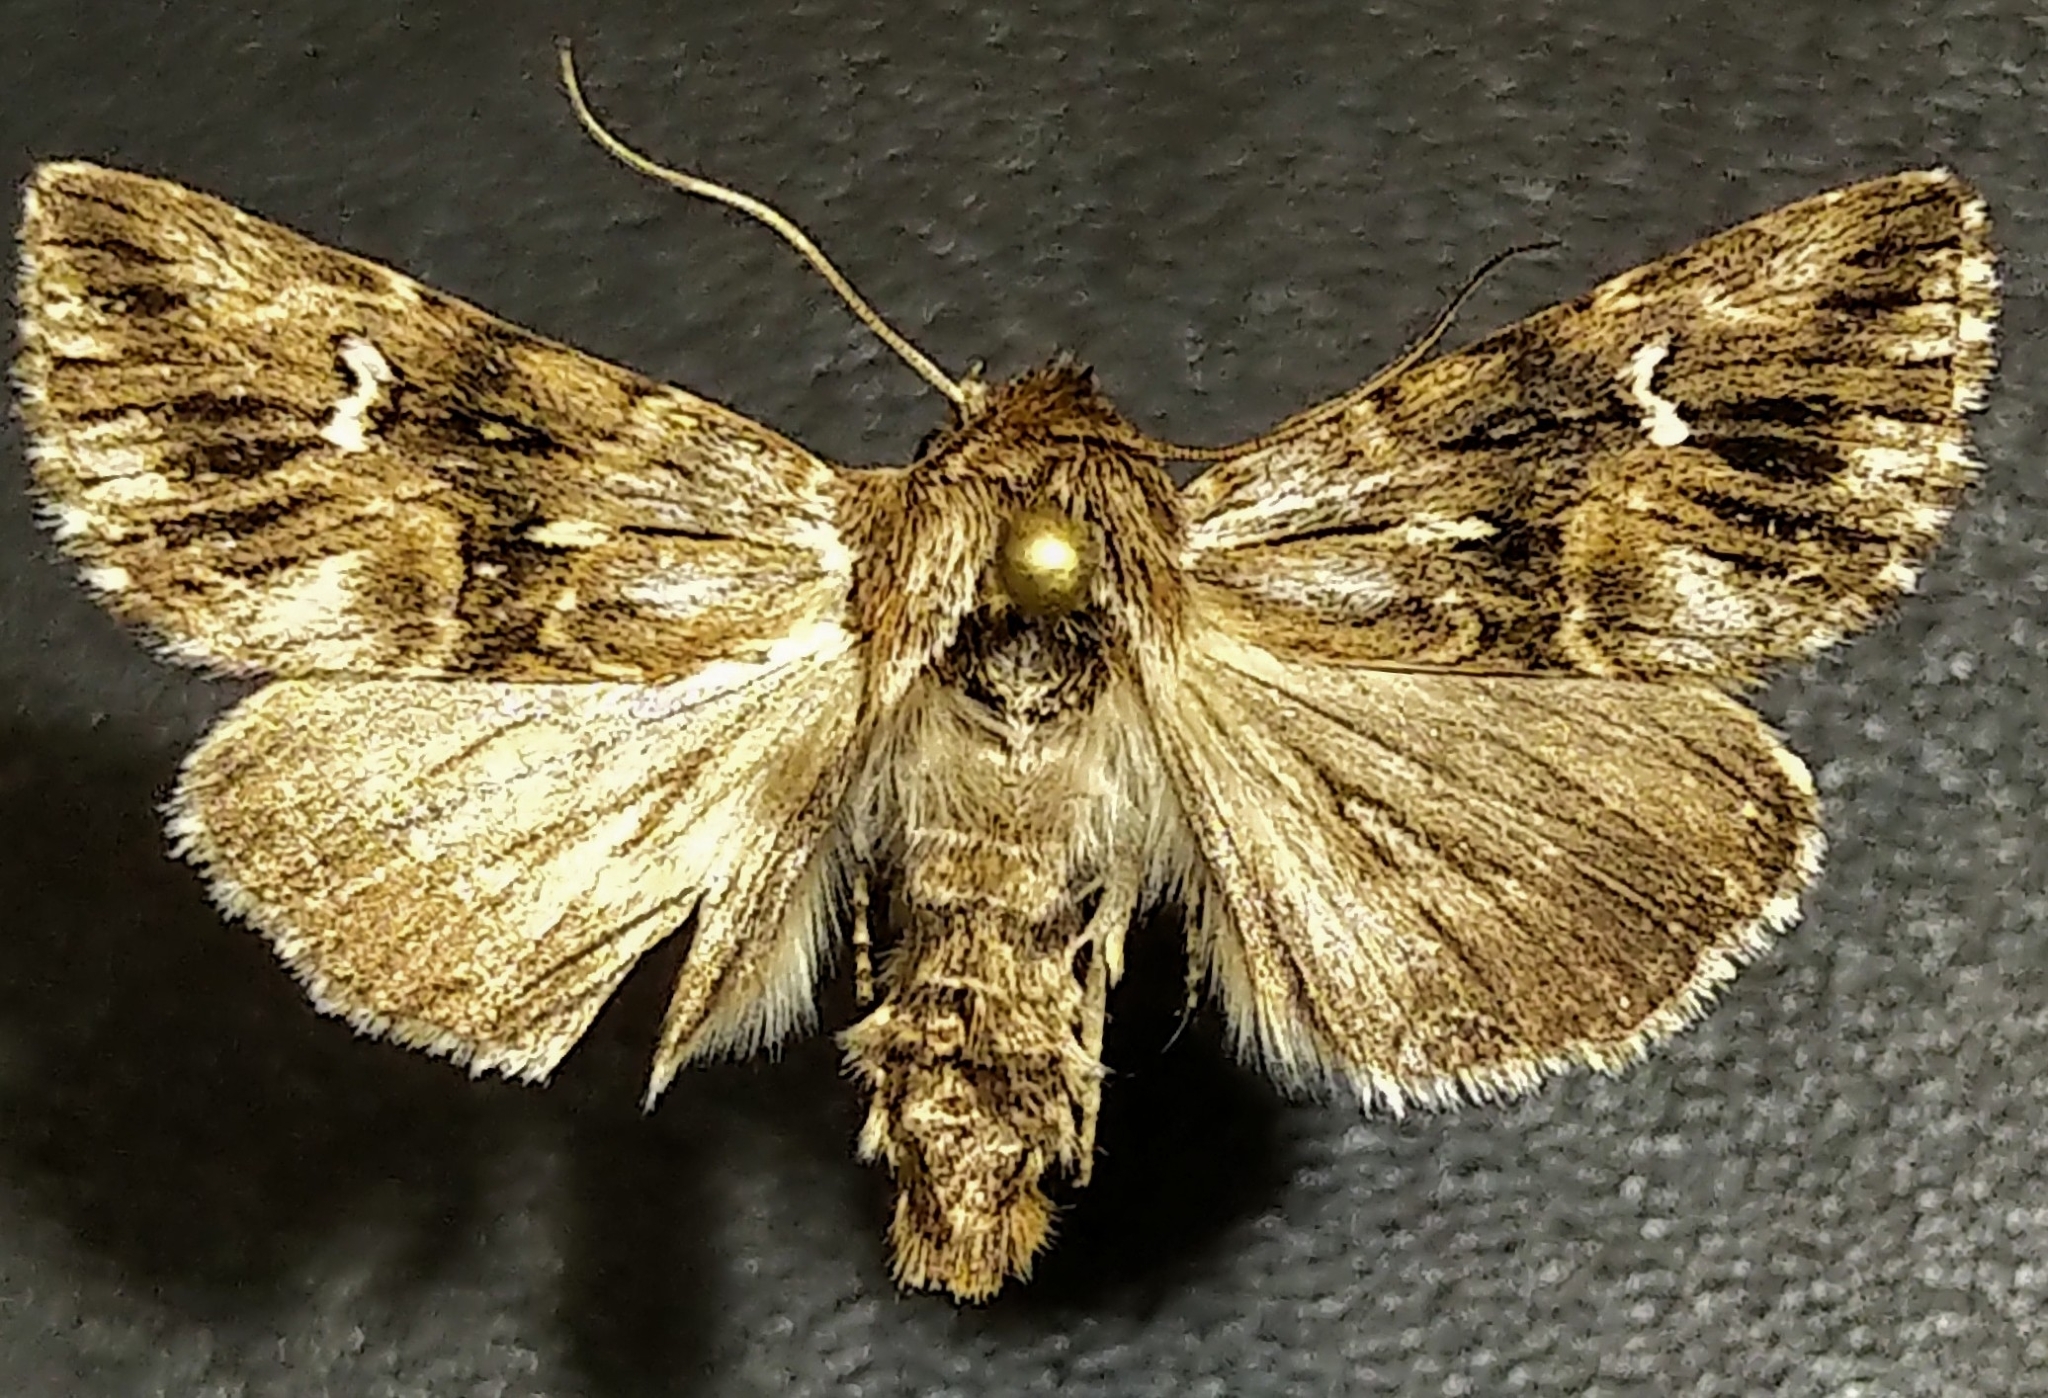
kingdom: Animalia
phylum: Arthropoda
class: Insecta
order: Lepidoptera
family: Noctuidae
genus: Calophasia
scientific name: Calophasia lunula
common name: Toadflax brocade
